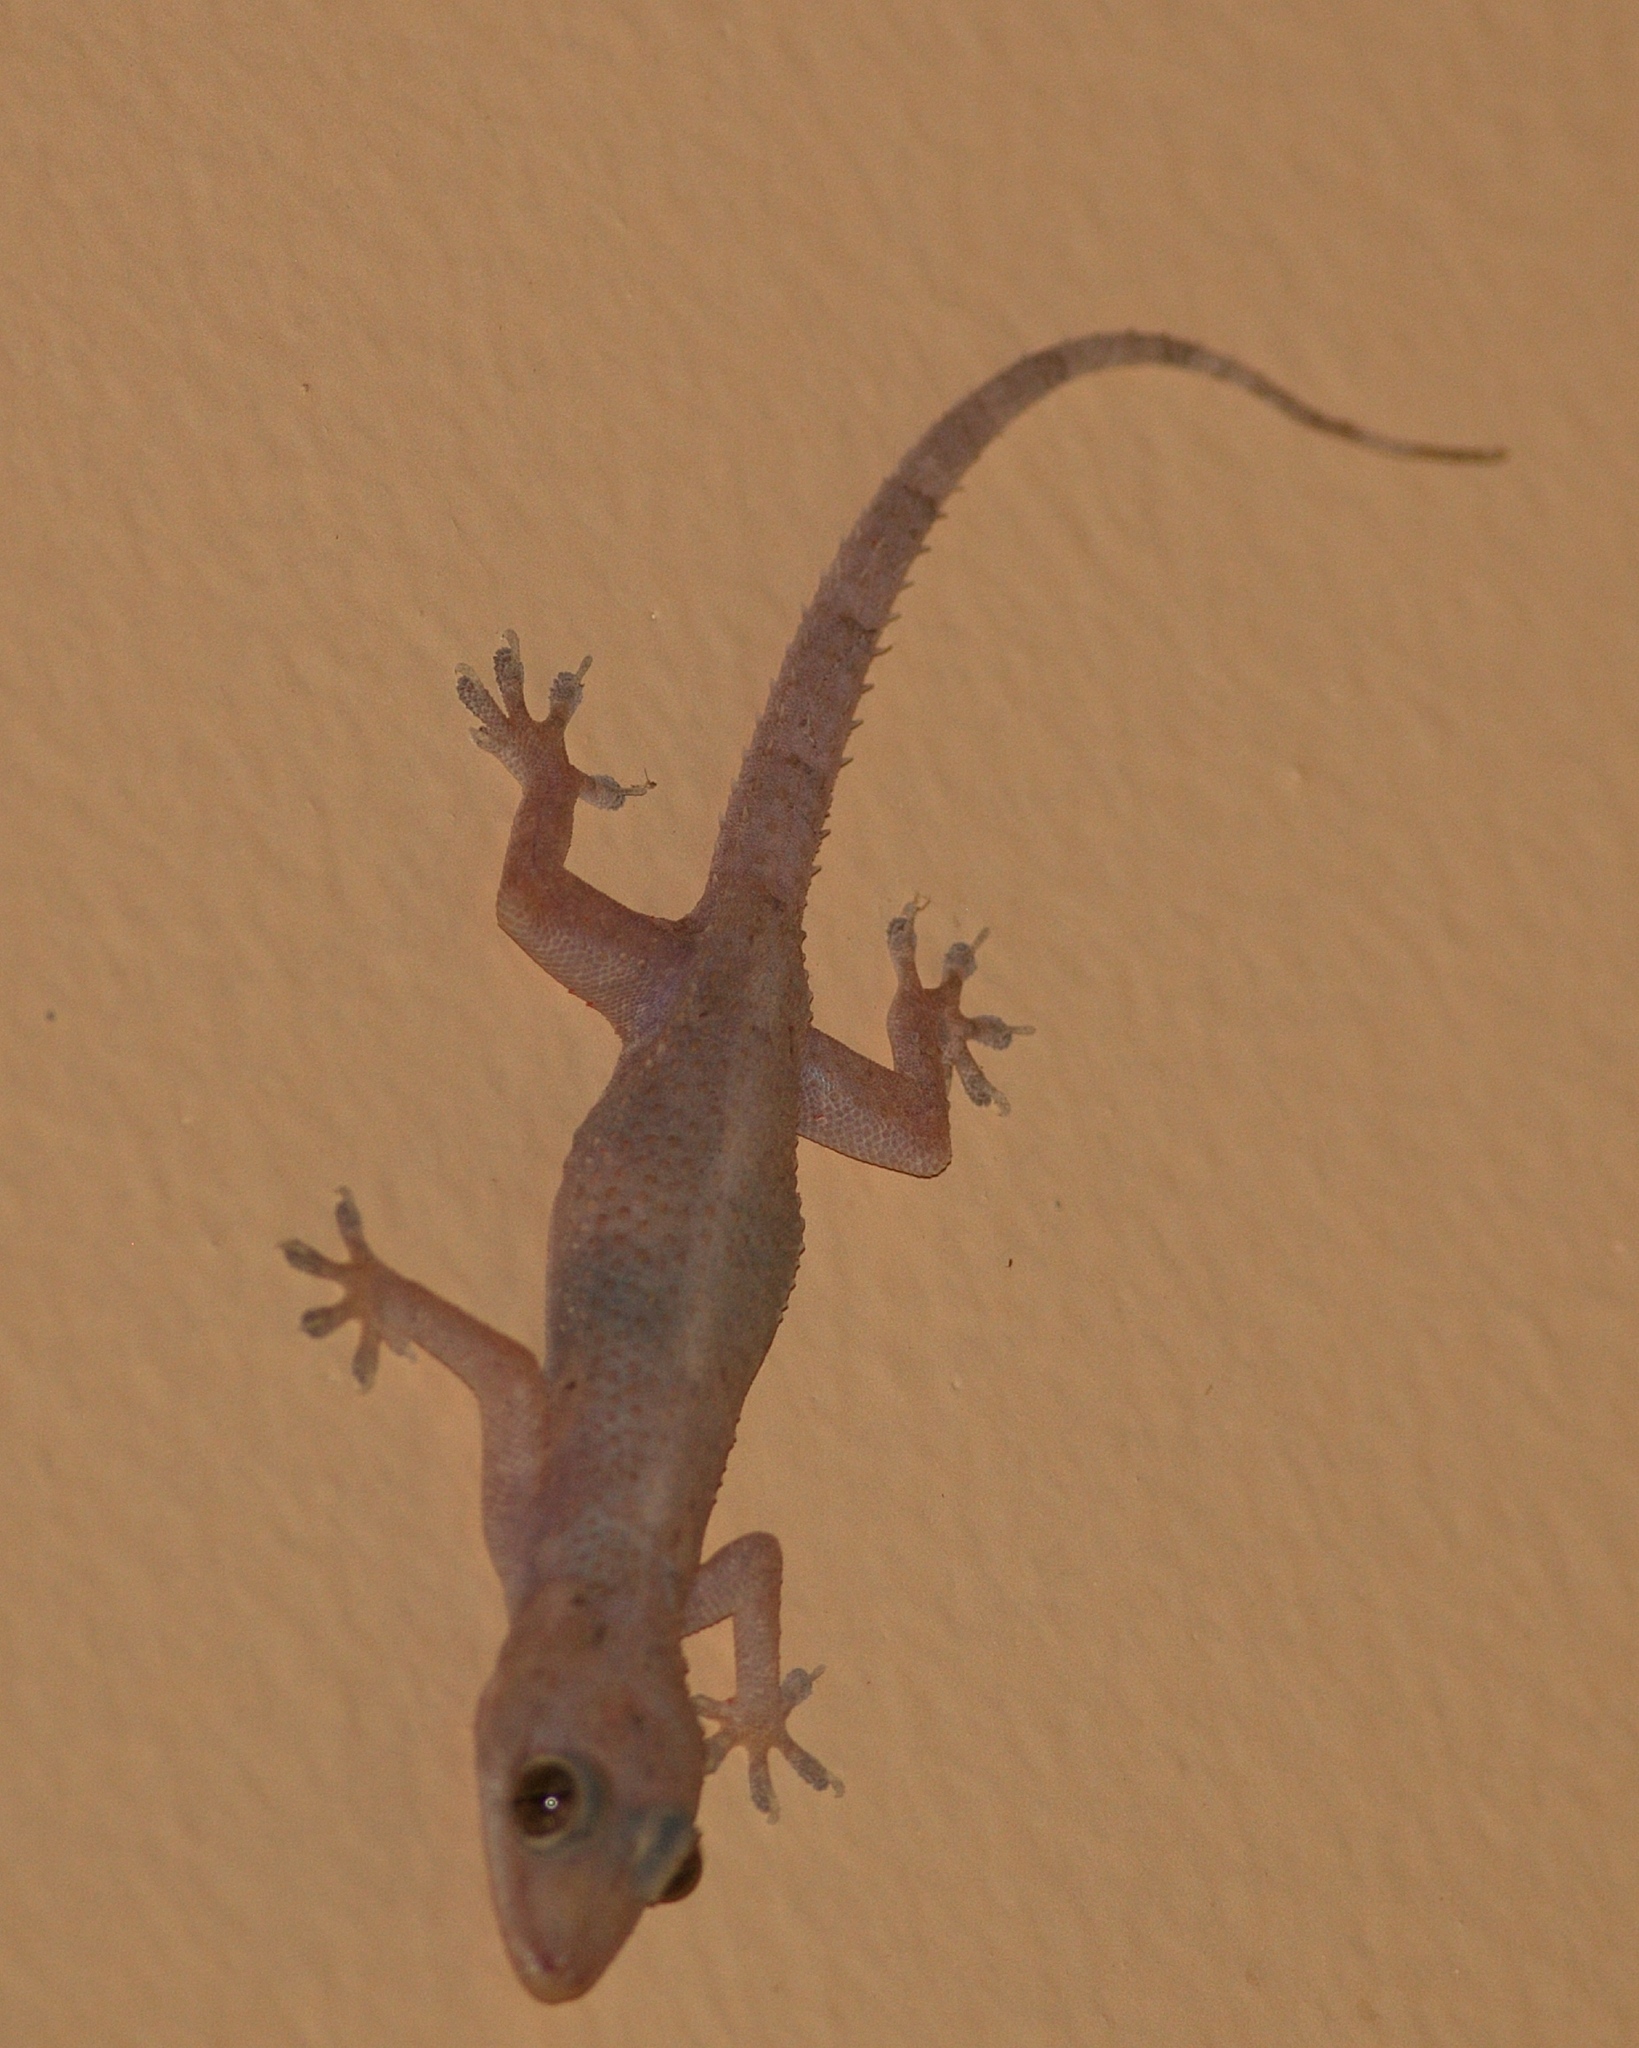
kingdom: Animalia
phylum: Chordata
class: Squamata
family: Gekkonidae
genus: Hemidactylus
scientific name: Hemidactylus mabouia
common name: House gecko
